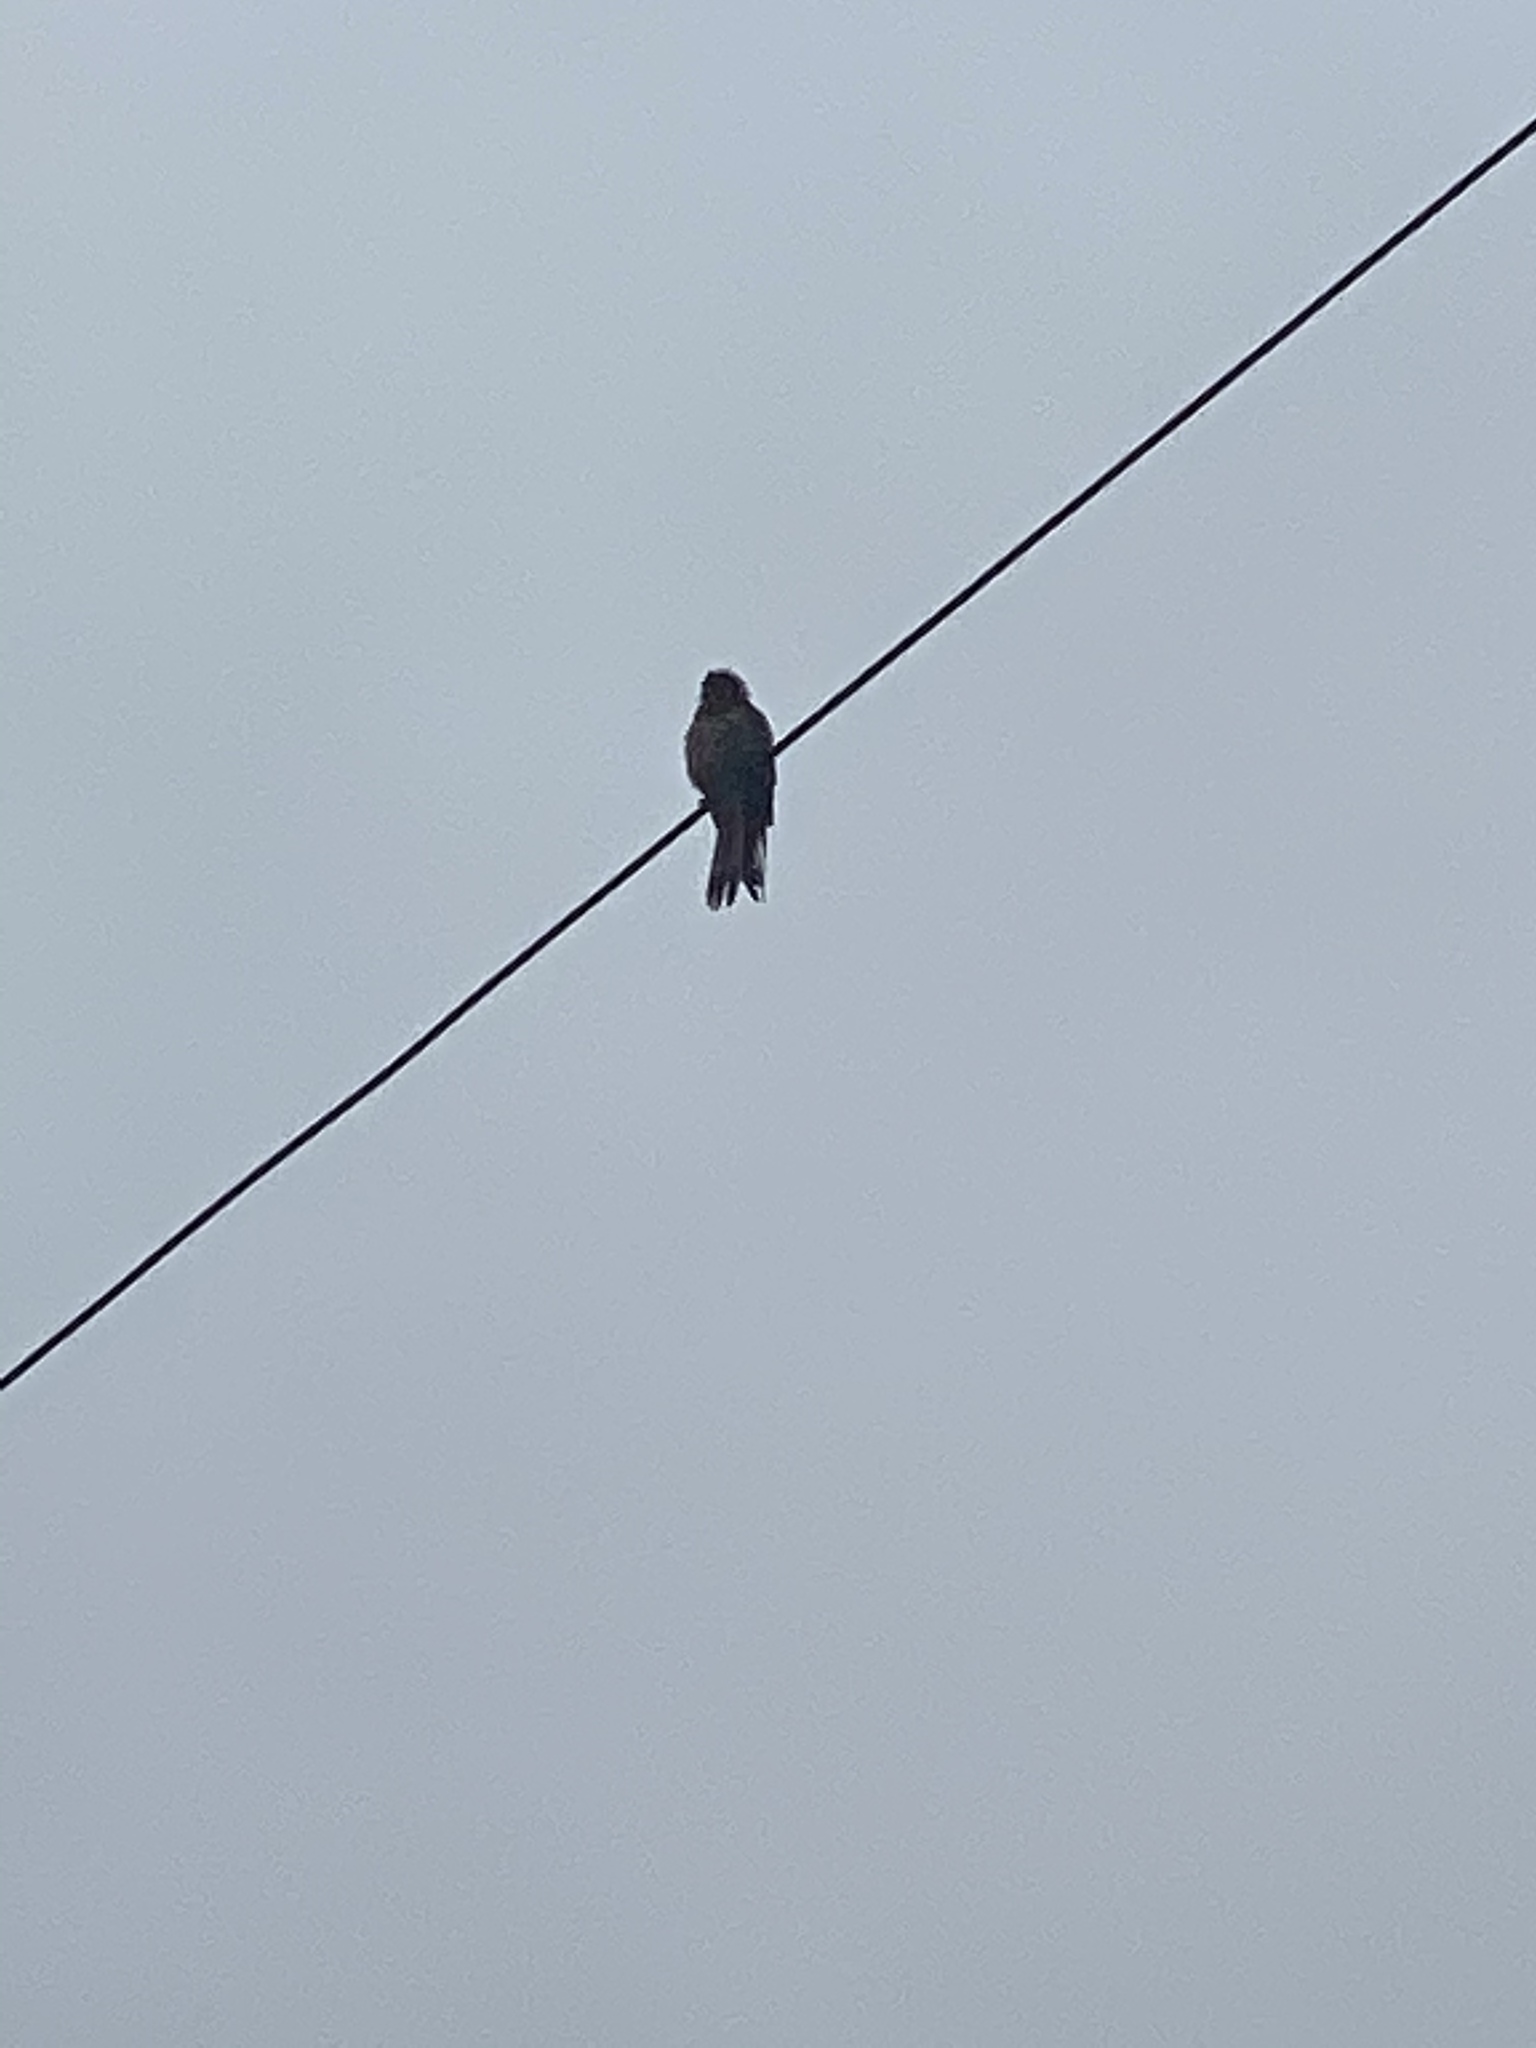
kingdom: Animalia
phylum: Chordata
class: Aves
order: Falconiformes
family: Falconidae
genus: Falco
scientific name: Falco sparverius
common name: American kestrel
